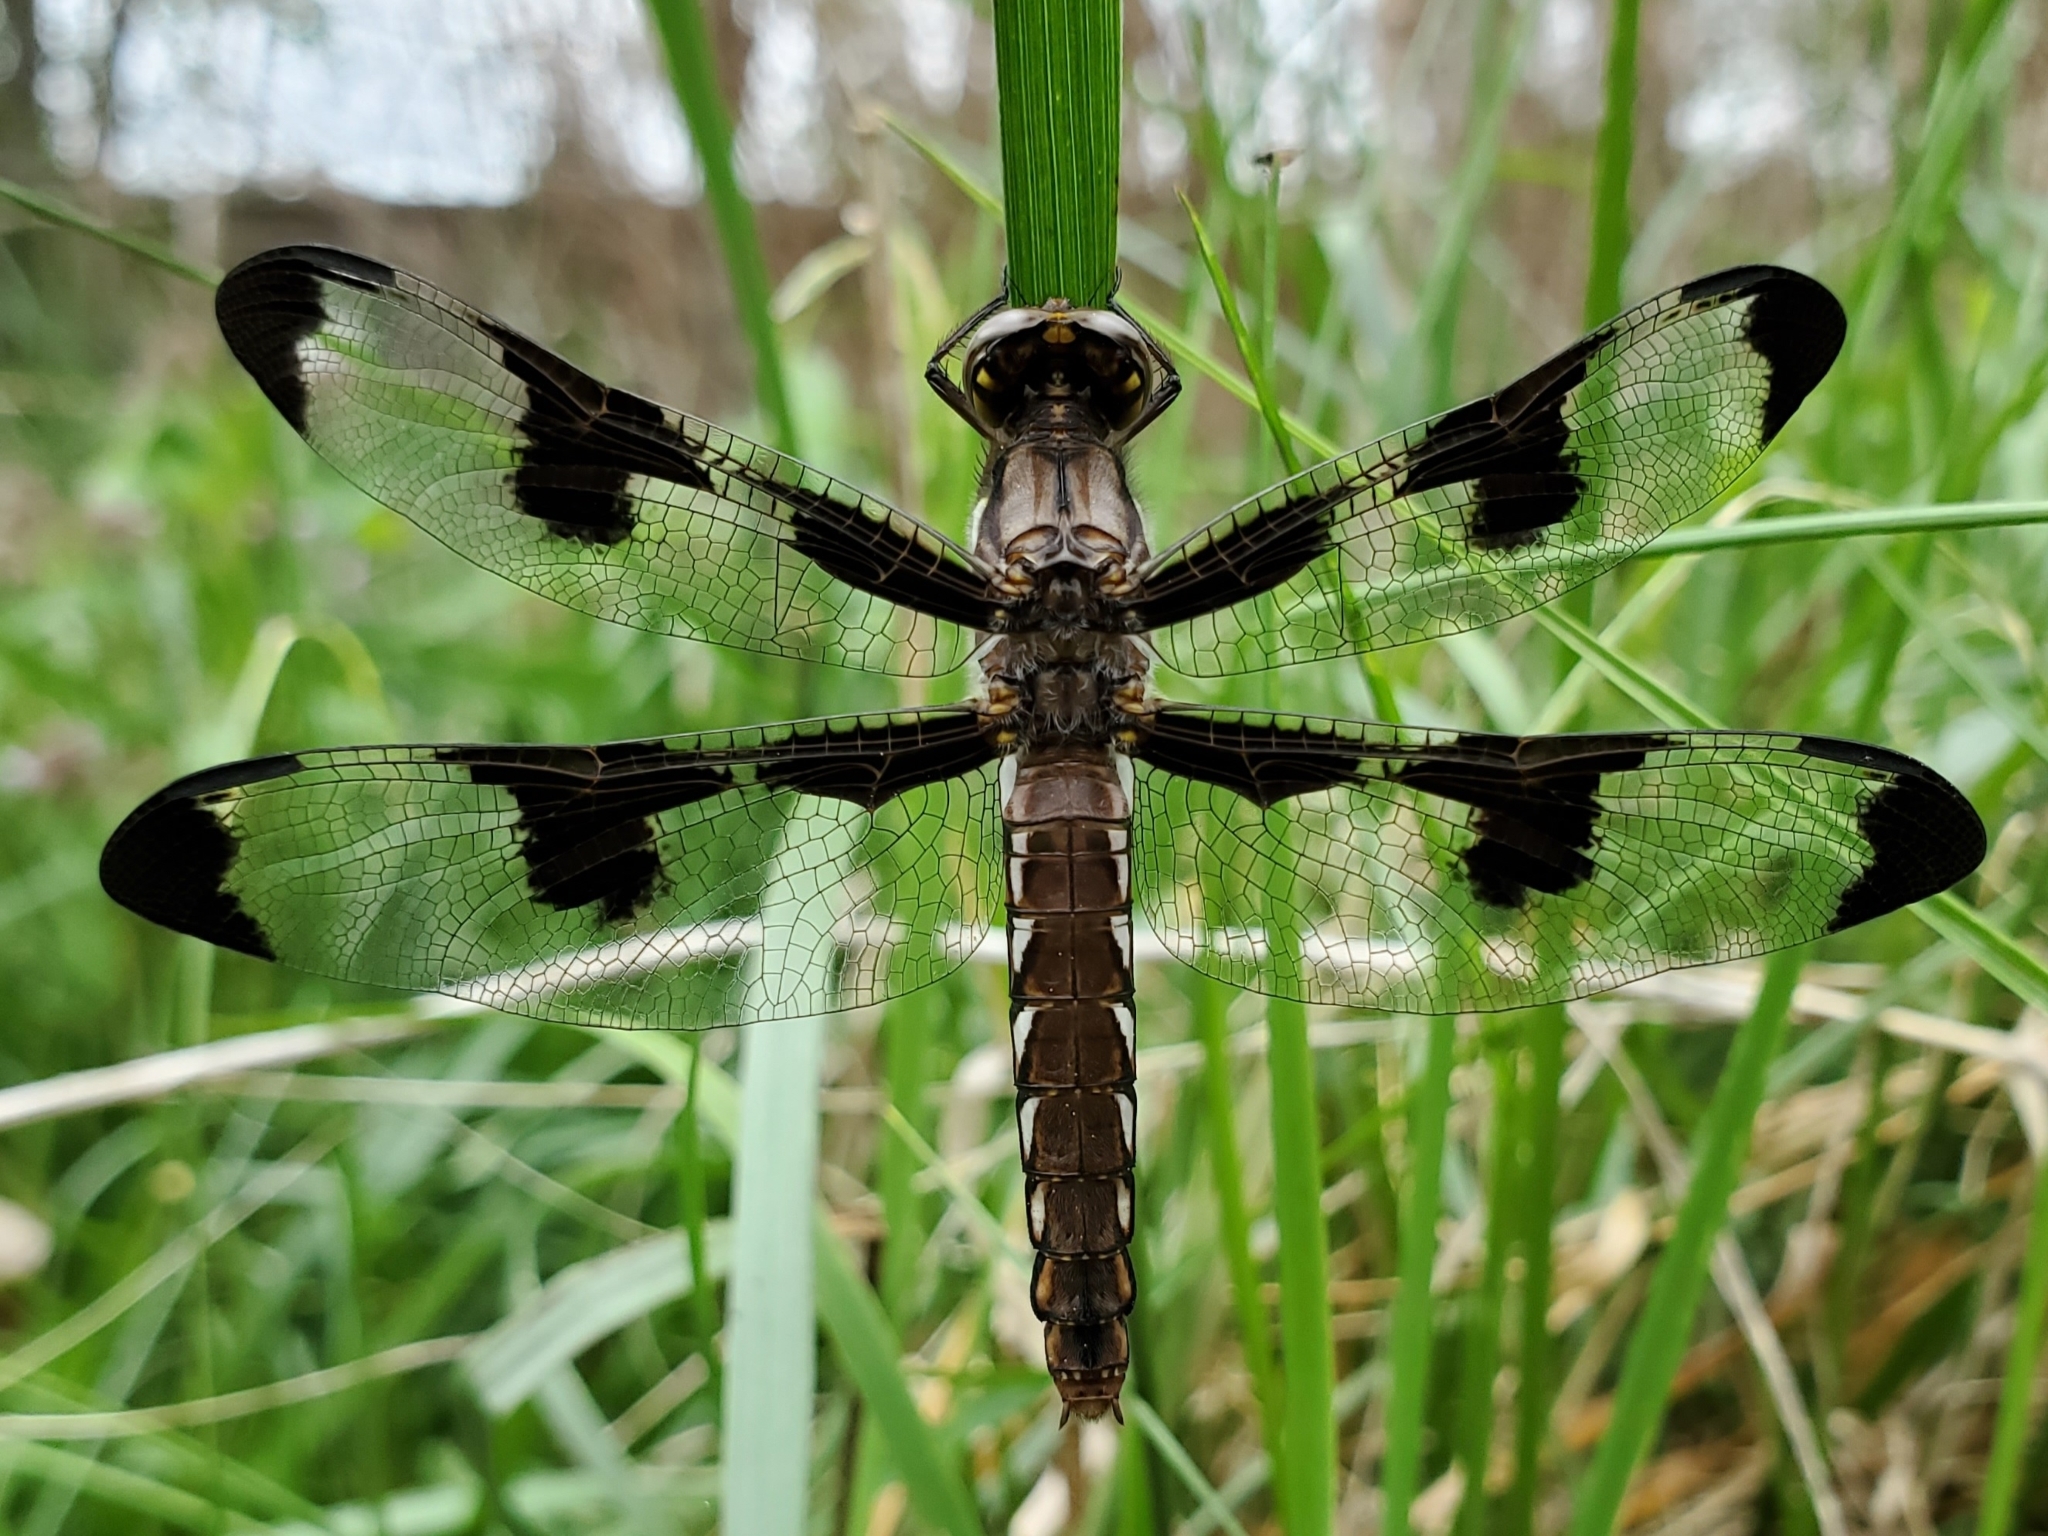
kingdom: Animalia
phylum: Arthropoda
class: Insecta
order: Odonata
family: Libellulidae
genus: Plathemis
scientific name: Plathemis lydia
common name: Common whitetail
